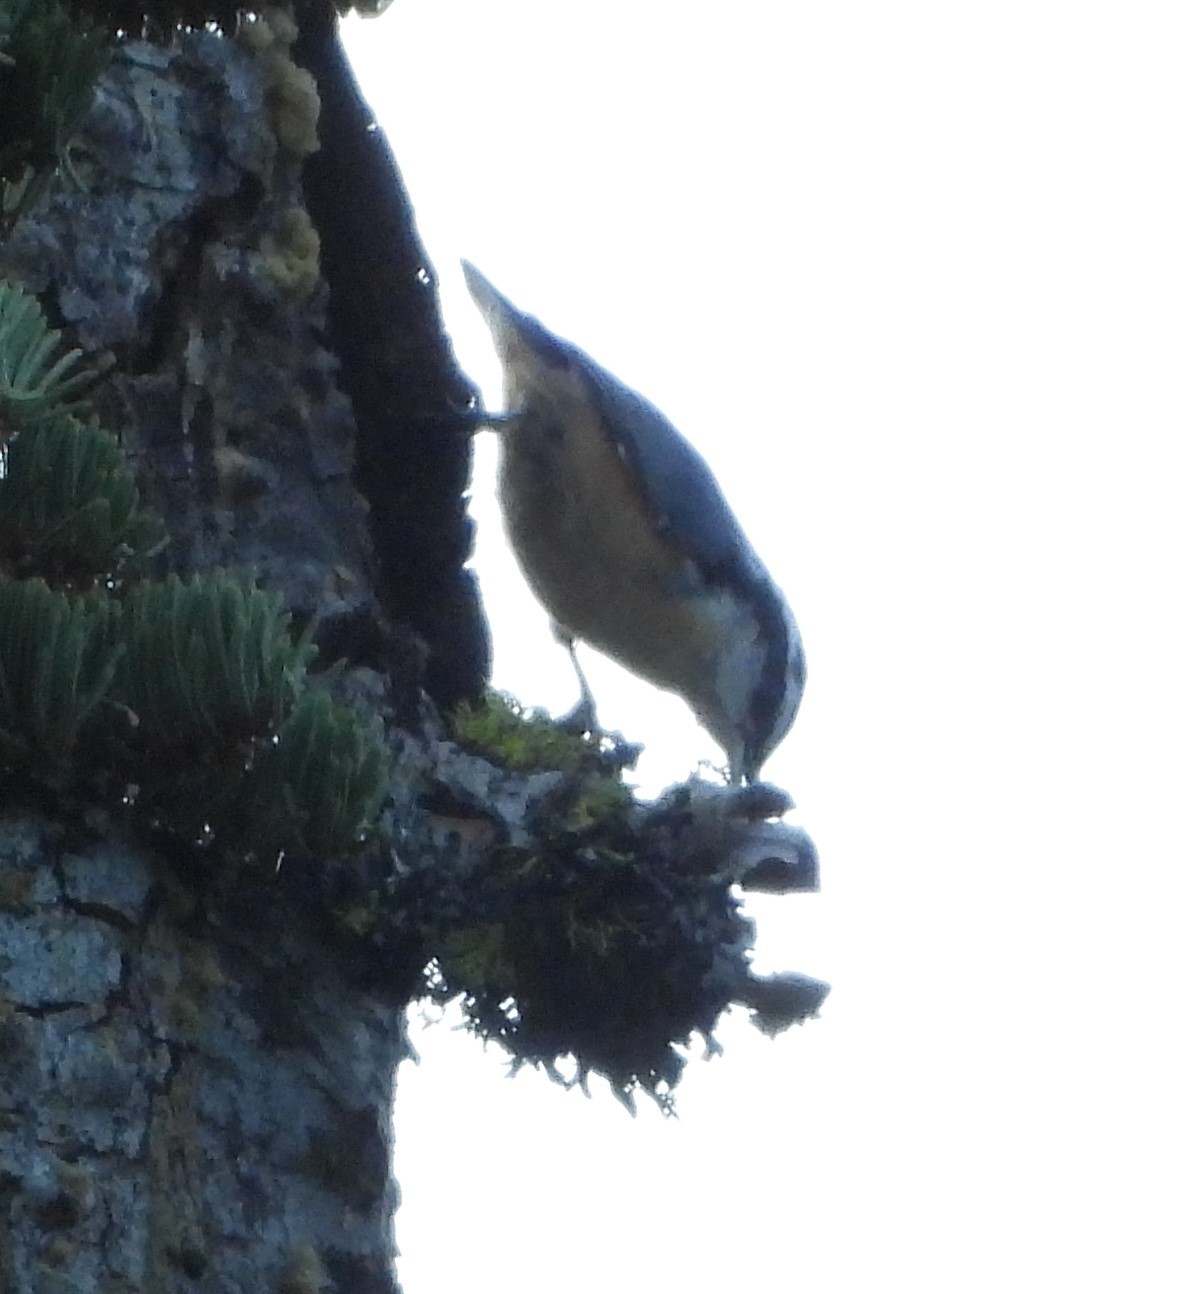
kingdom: Animalia
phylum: Chordata
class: Aves
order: Passeriformes
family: Sittidae
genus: Sitta
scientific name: Sitta canadensis
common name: Red-breasted nuthatch
